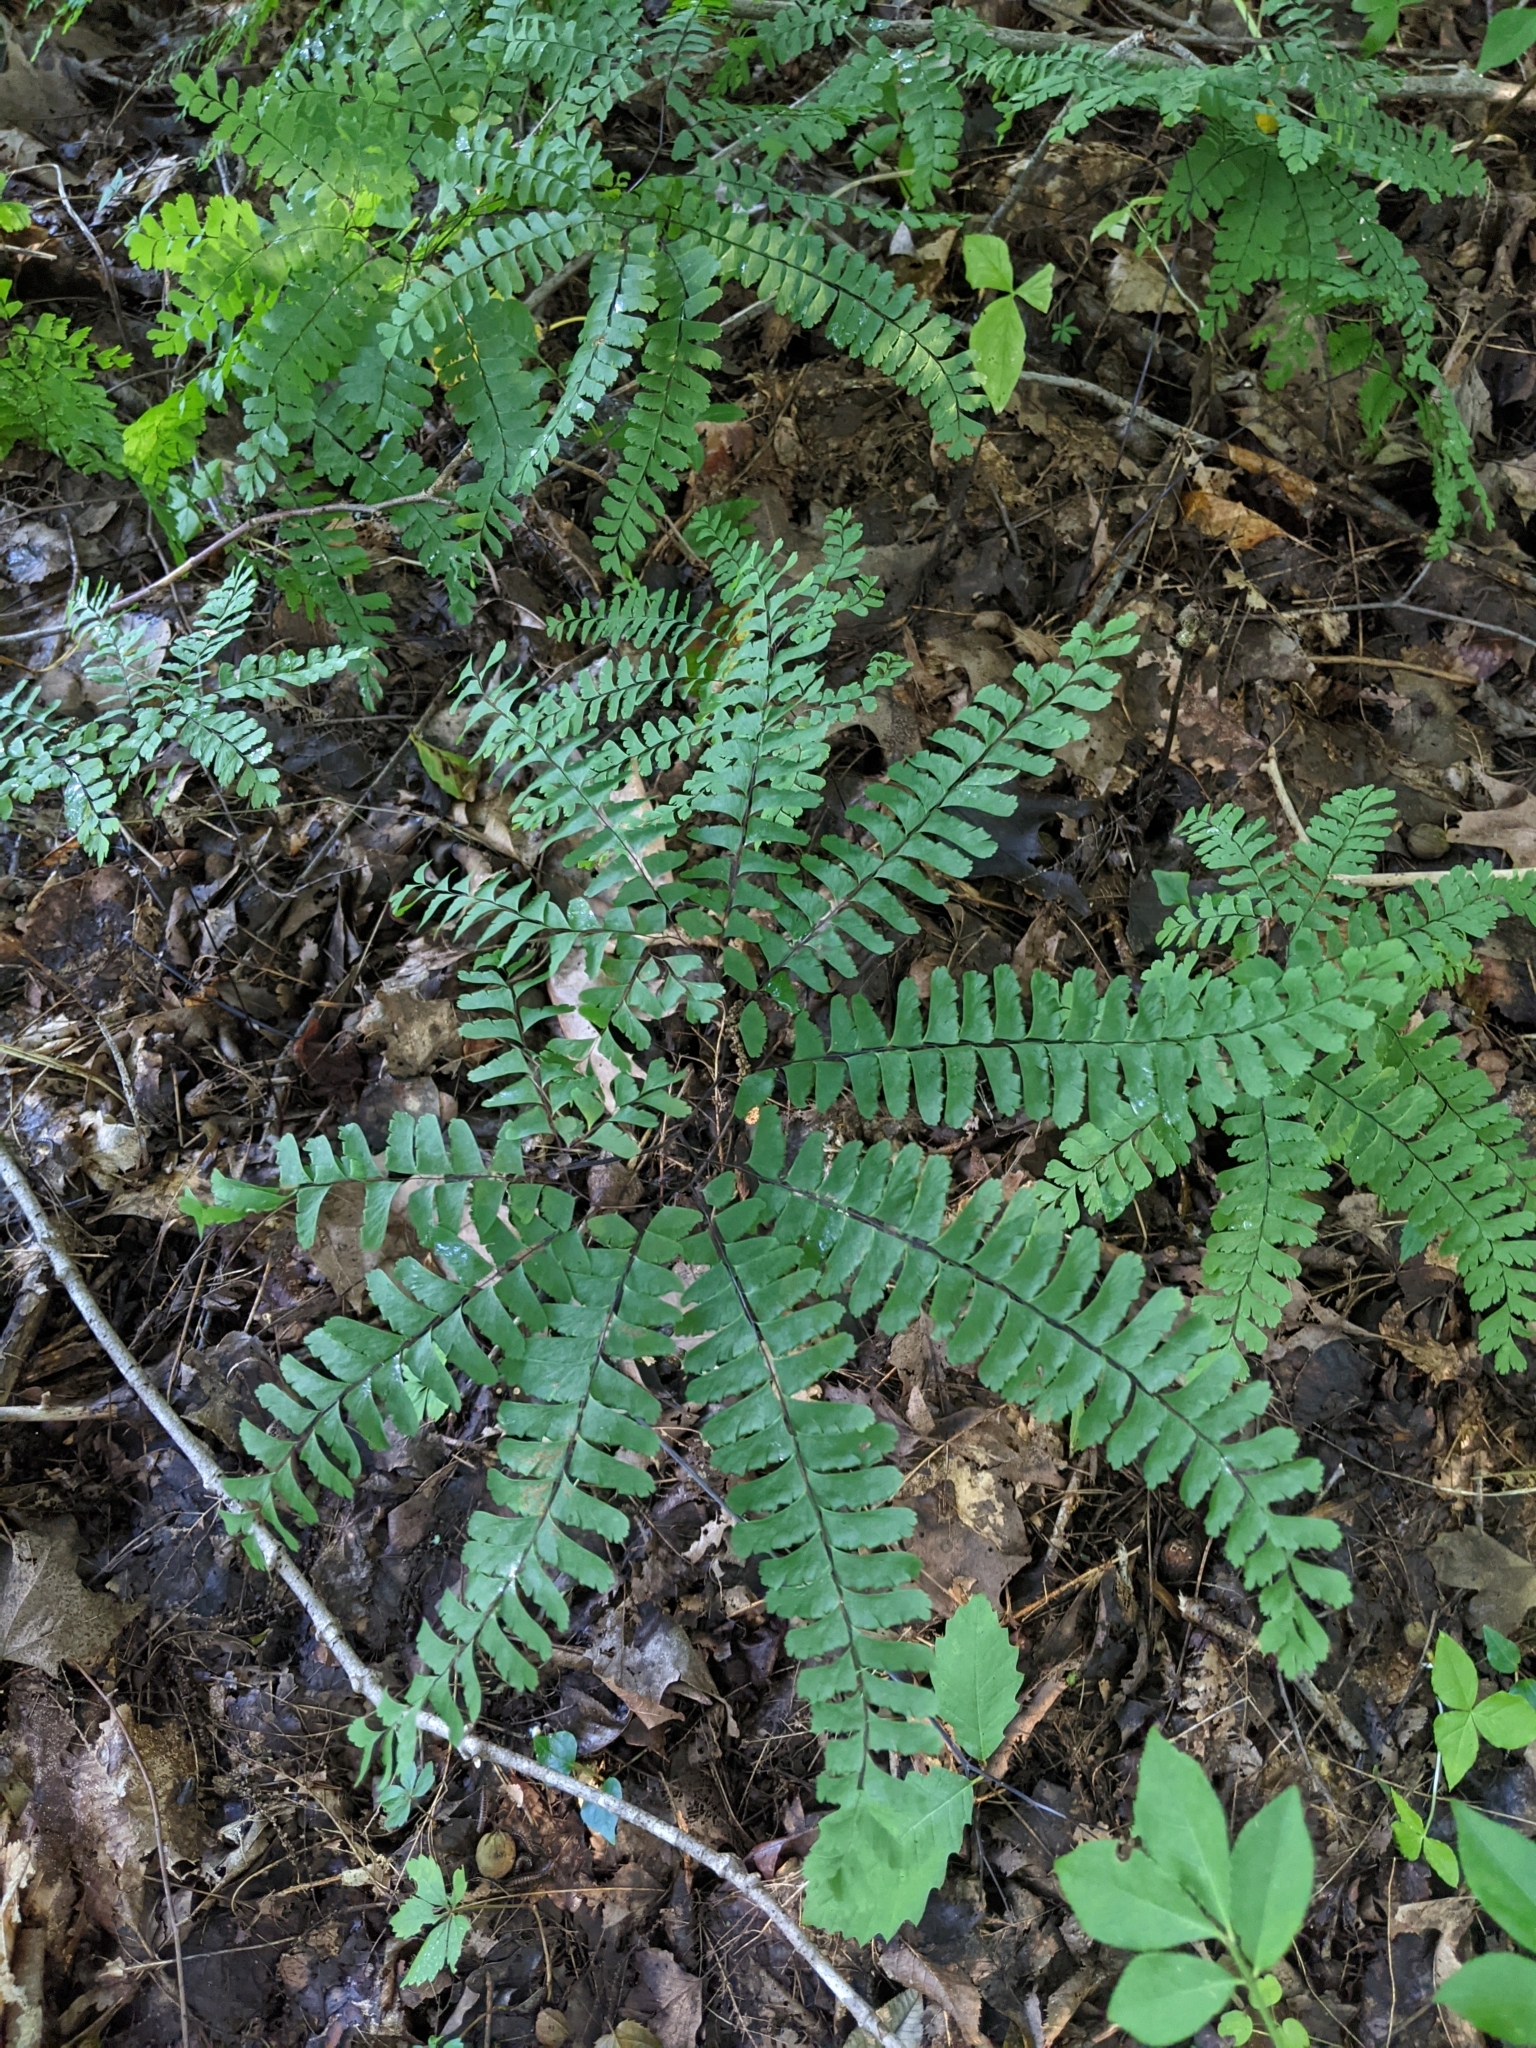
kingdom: Plantae
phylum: Tracheophyta
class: Polypodiopsida
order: Polypodiales
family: Pteridaceae
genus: Adiantum
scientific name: Adiantum pedatum
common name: Five-finger fern
